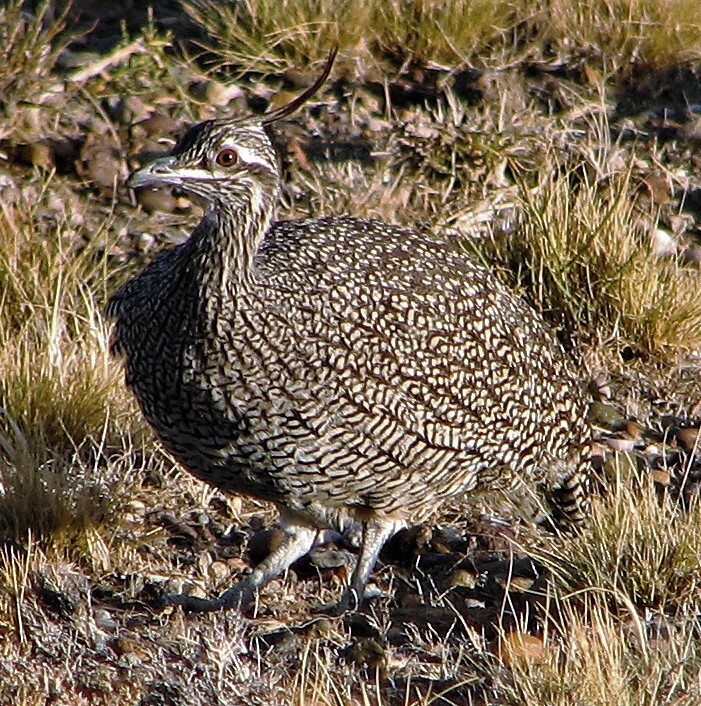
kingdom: Animalia
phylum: Chordata
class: Aves
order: Tinamiformes
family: Tinamidae
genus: Eudromia
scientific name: Eudromia elegans
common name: Elegant crested tinamou
